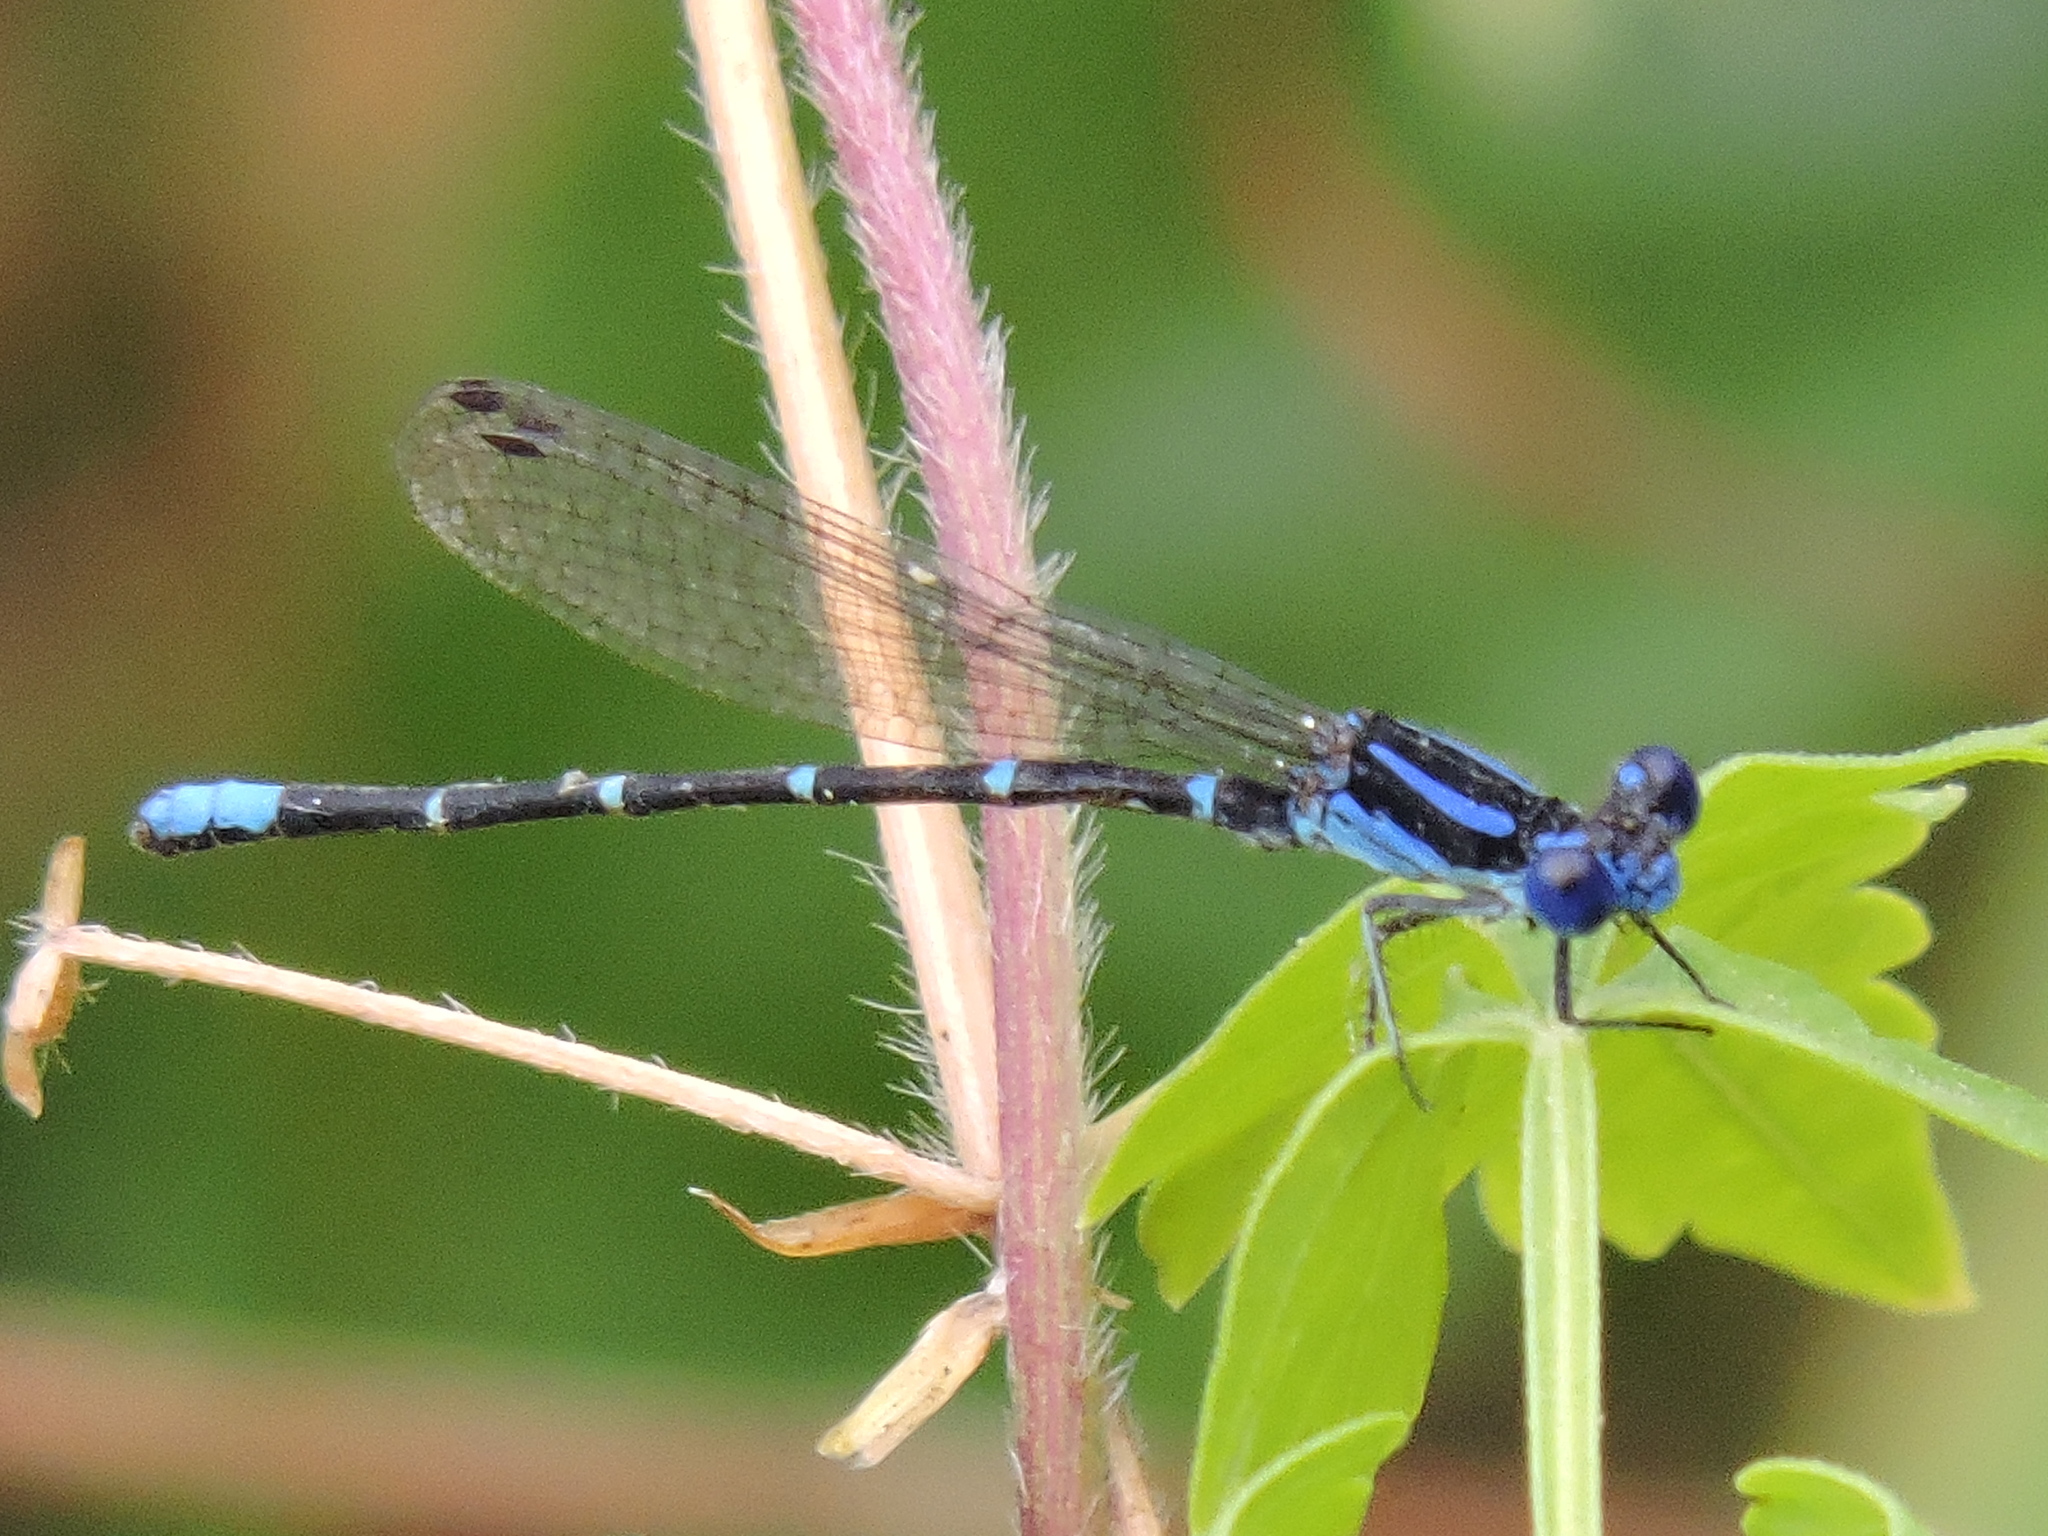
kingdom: Animalia
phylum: Arthropoda
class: Insecta
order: Odonata
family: Coenagrionidae
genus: Argia
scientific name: Argia sedula
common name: Blue-ringed dancer
